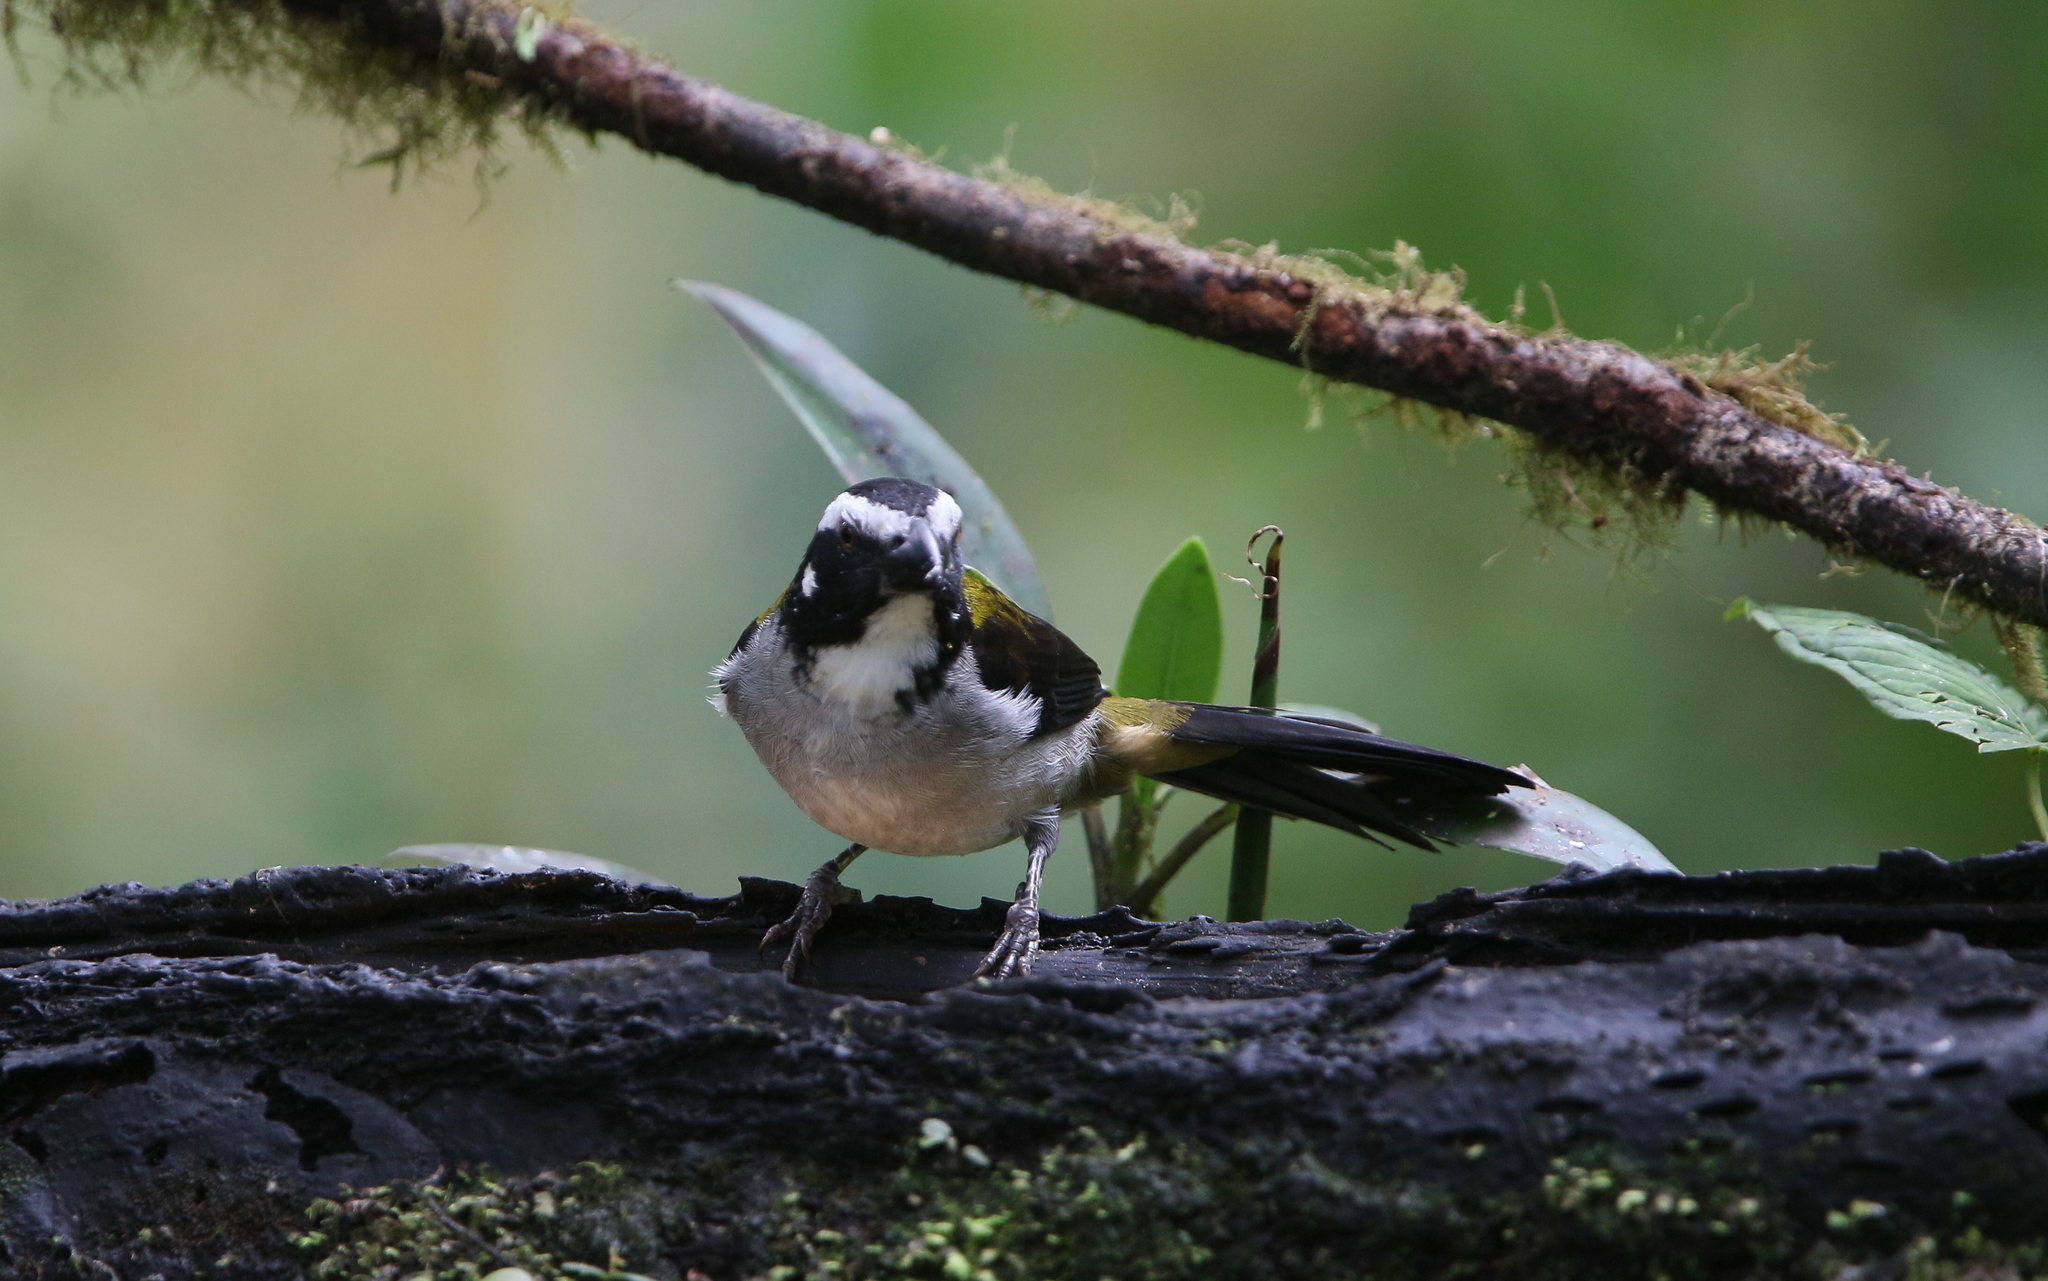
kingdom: Animalia
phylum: Chordata
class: Aves
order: Passeriformes
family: Thraupidae
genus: Saltator
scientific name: Saltator atripennis
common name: Black-winged saltator
